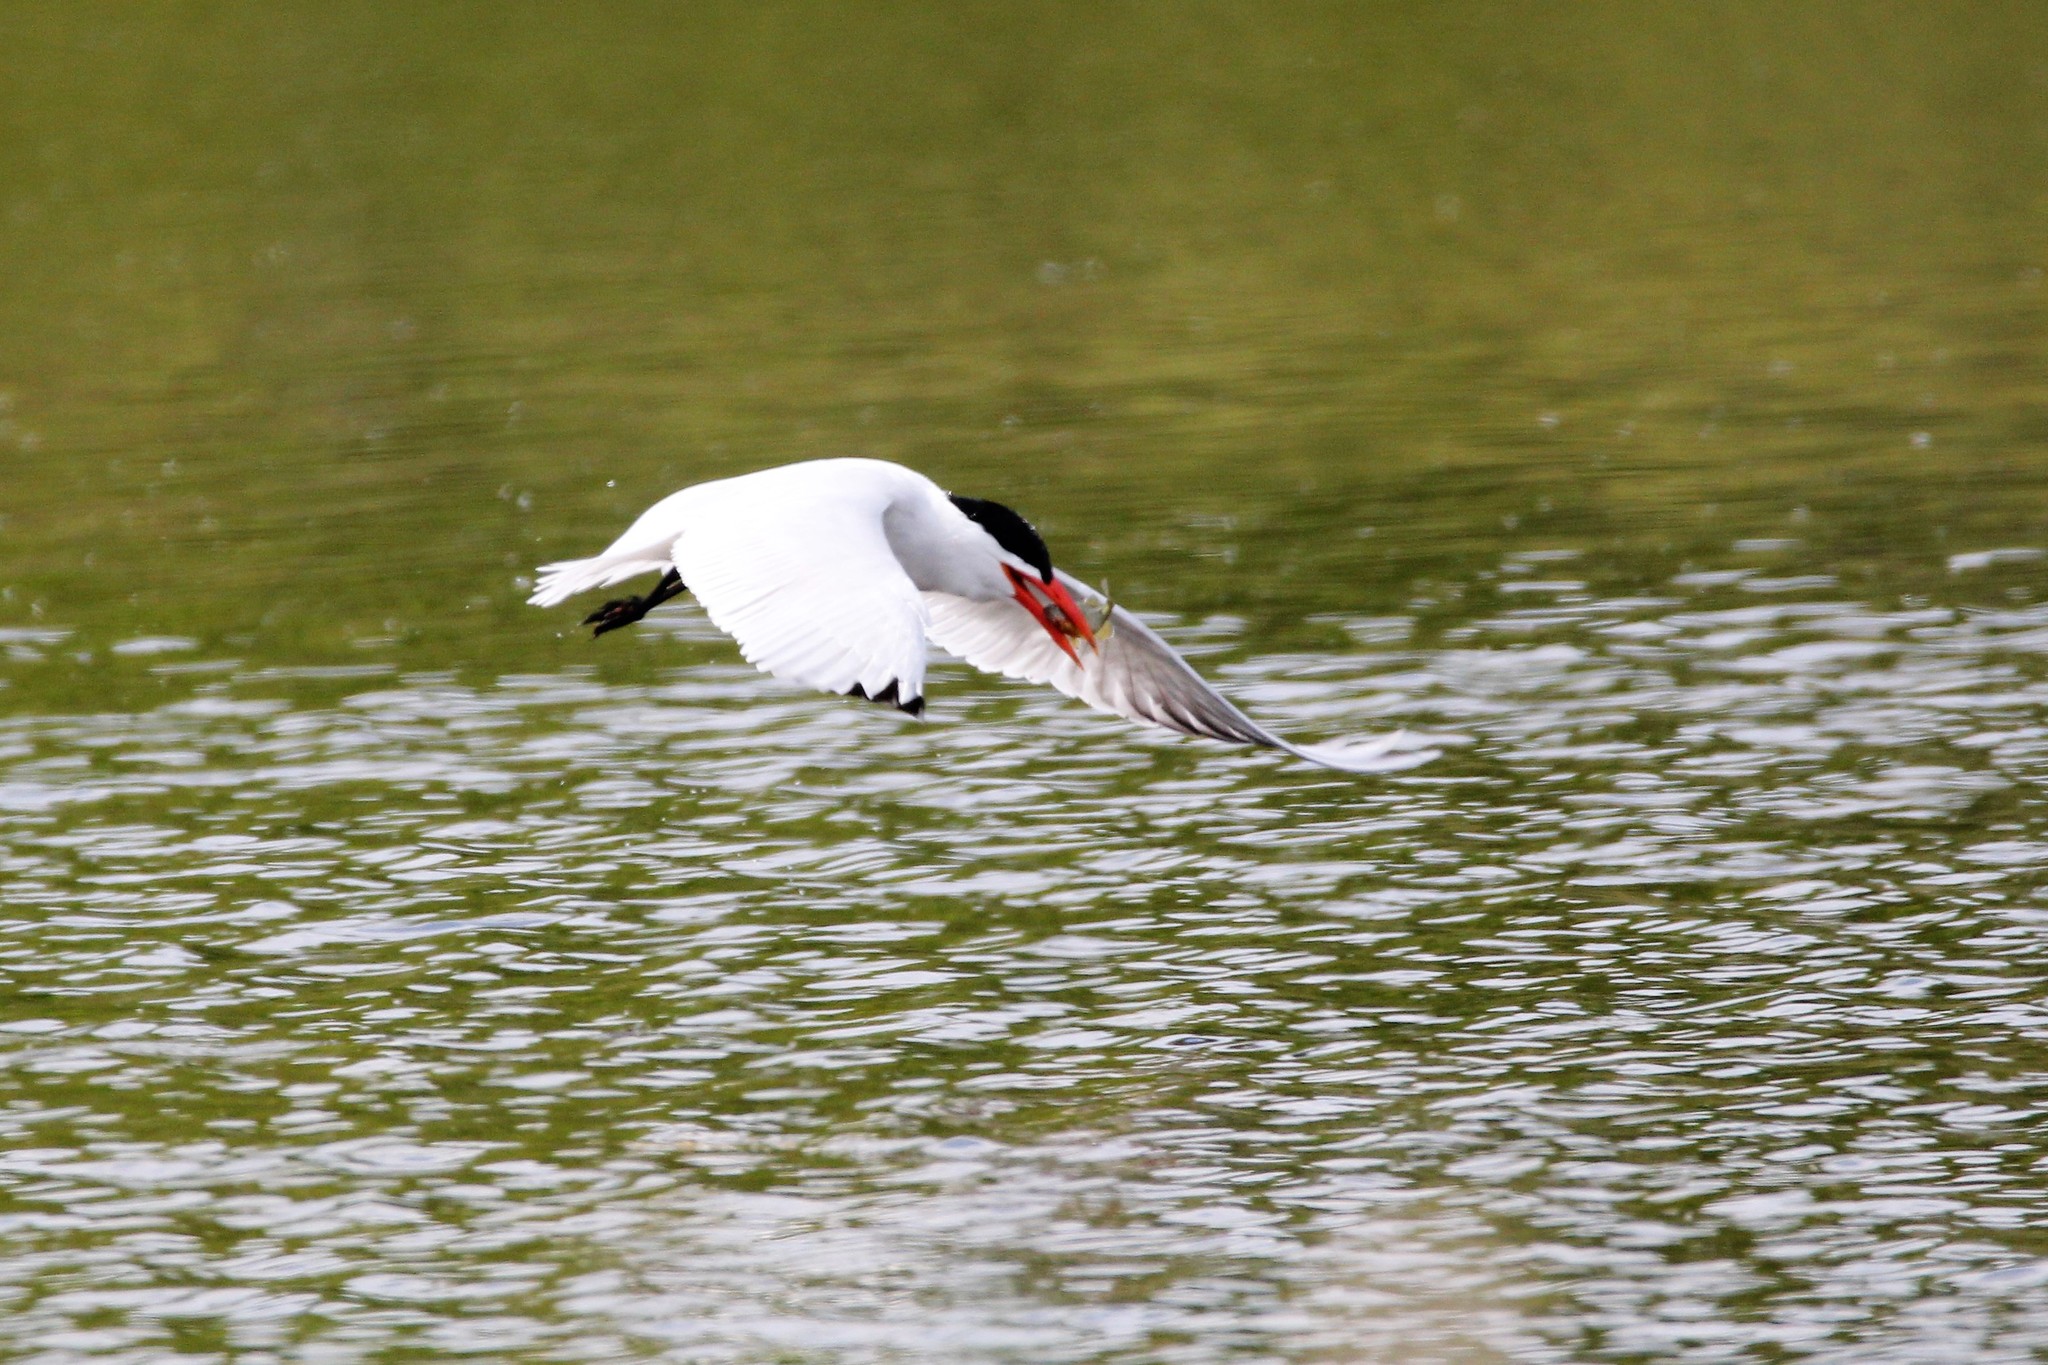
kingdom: Animalia
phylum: Chordata
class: Aves
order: Charadriiformes
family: Laridae
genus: Hydroprogne
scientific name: Hydroprogne caspia
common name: Caspian tern
